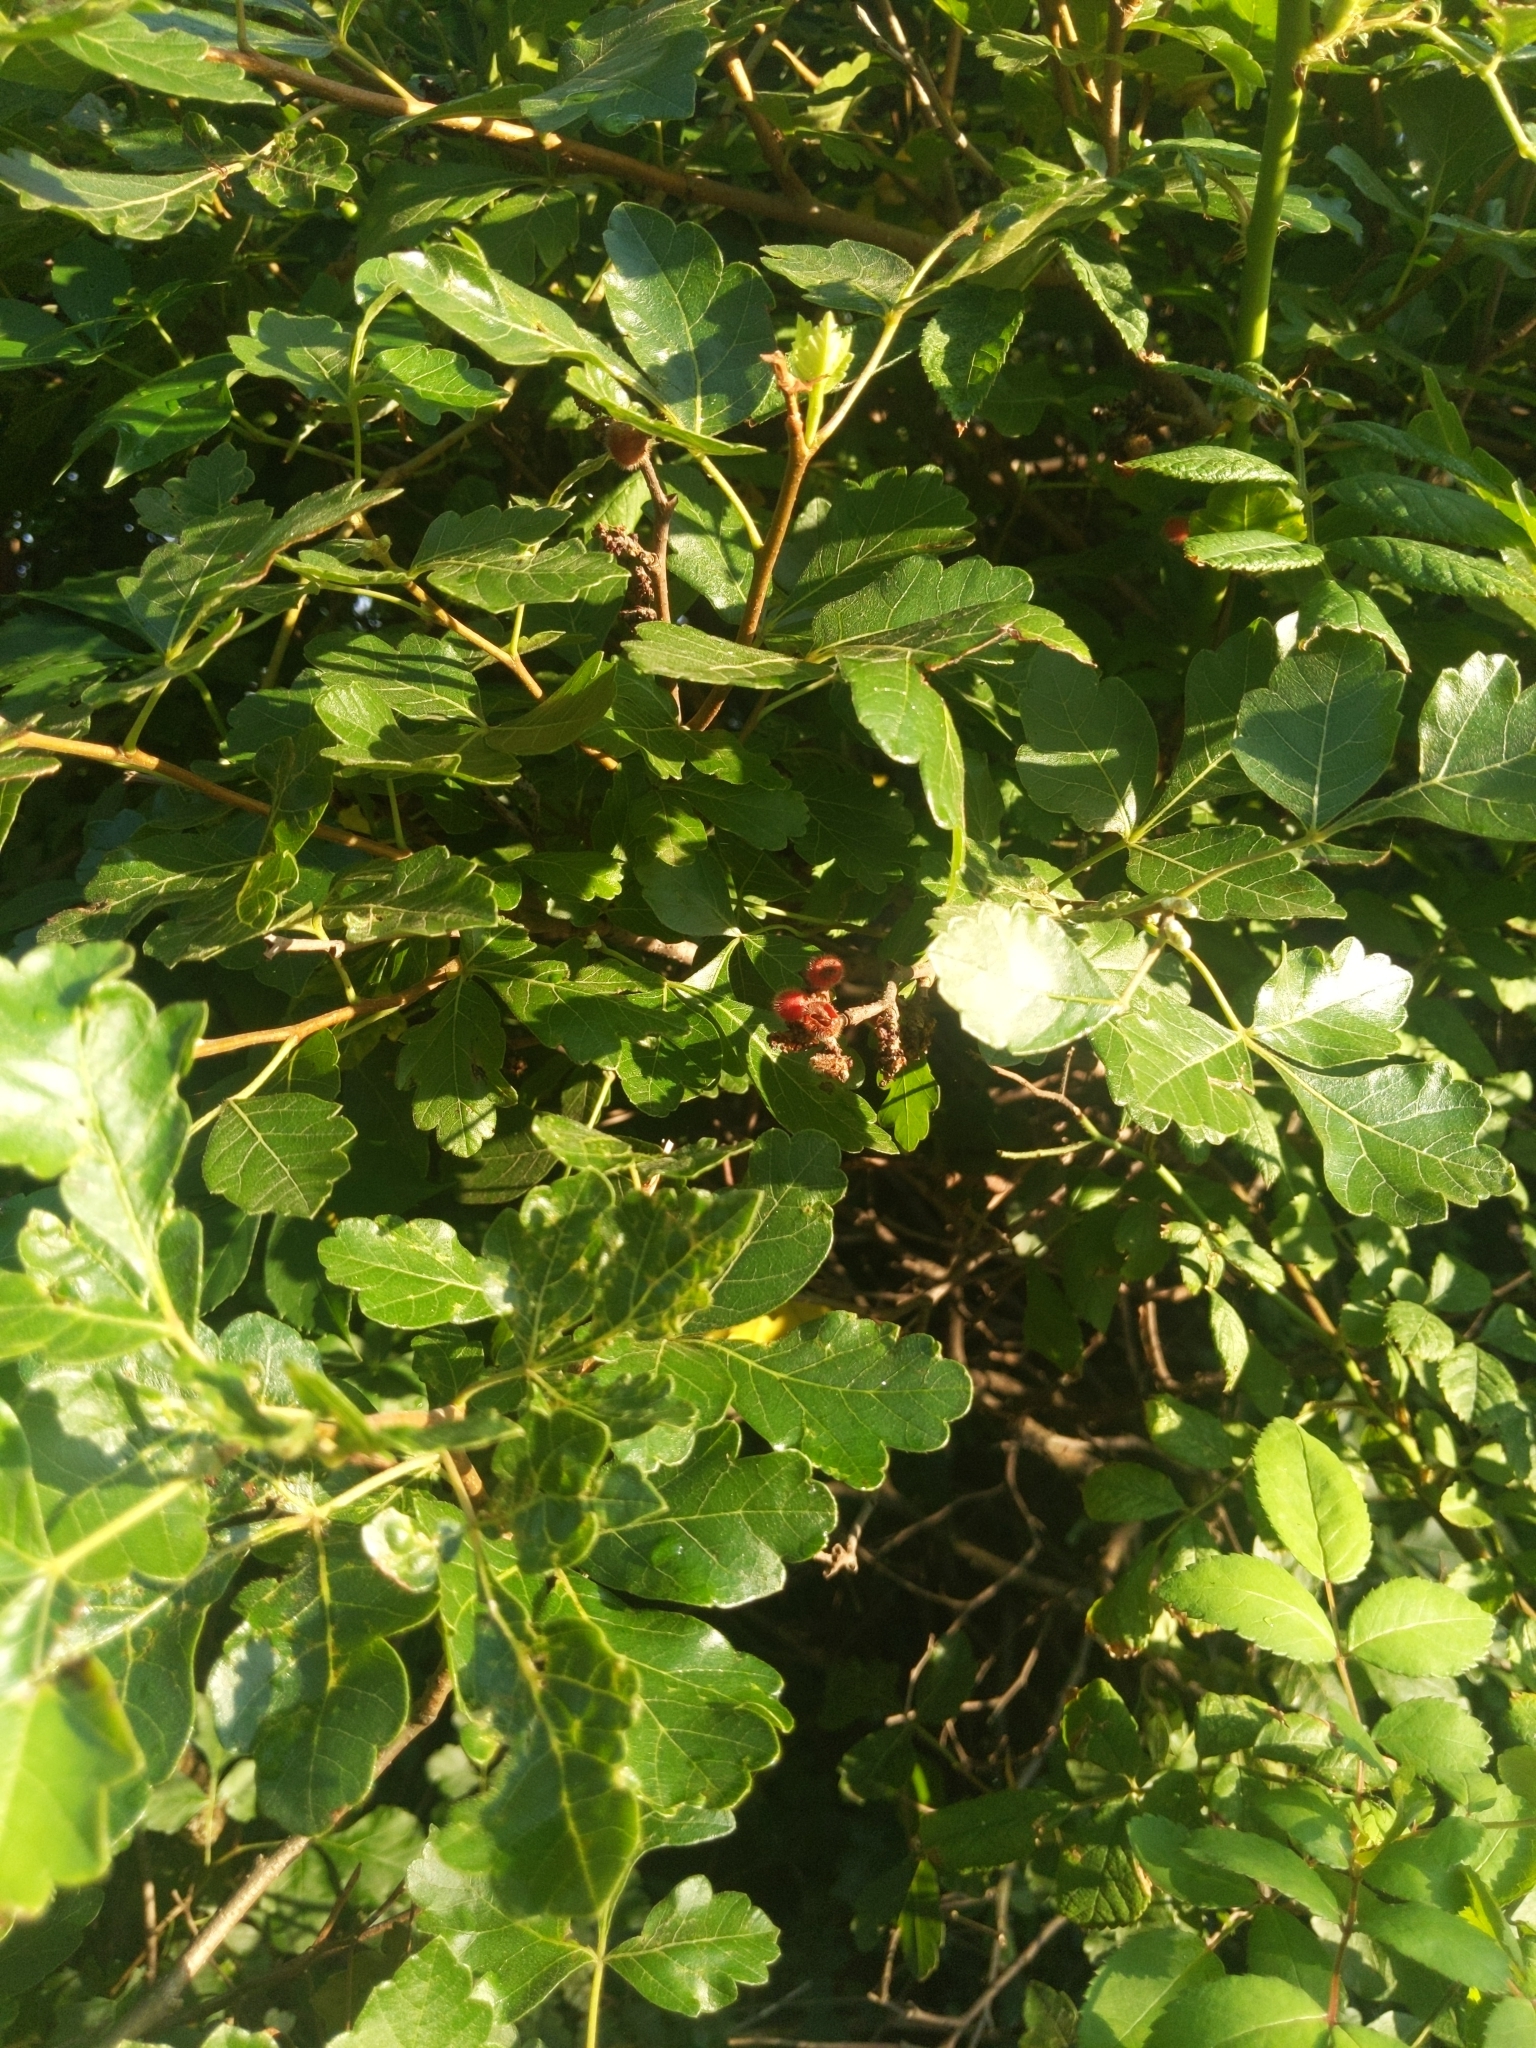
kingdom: Plantae
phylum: Tracheophyta
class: Magnoliopsida
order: Sapindales
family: Anacardiaceae
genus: Rhus
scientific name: Rhus aromatica
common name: Aromatic sumac
